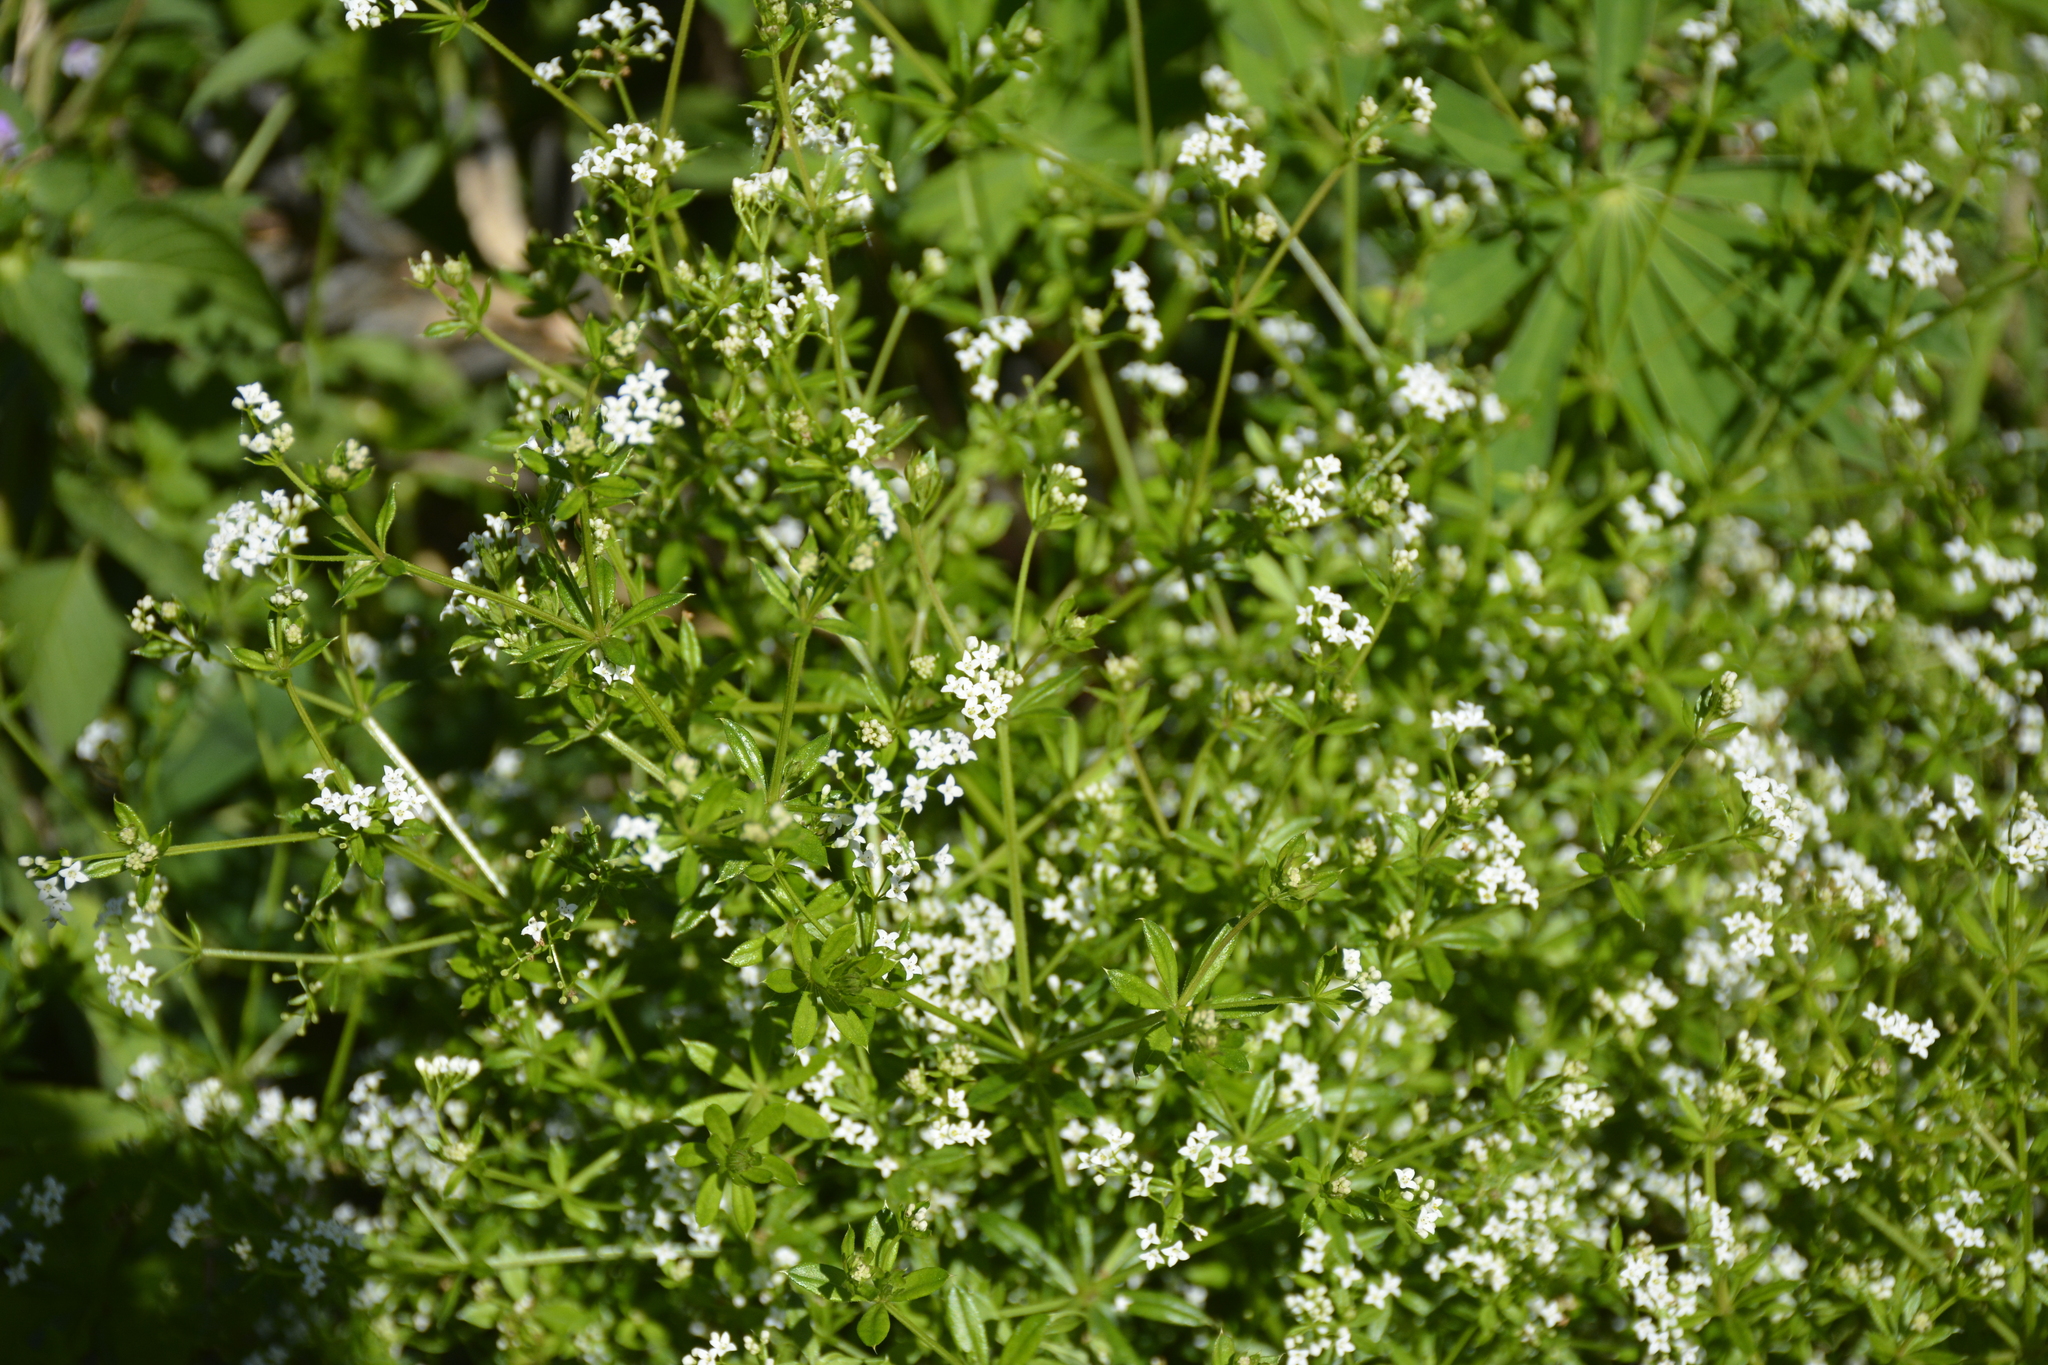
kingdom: Plantae
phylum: Tracheophyta
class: Magnoliopsida
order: Gentianales
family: Rubiaceae
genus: Galium
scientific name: Galium rivale
